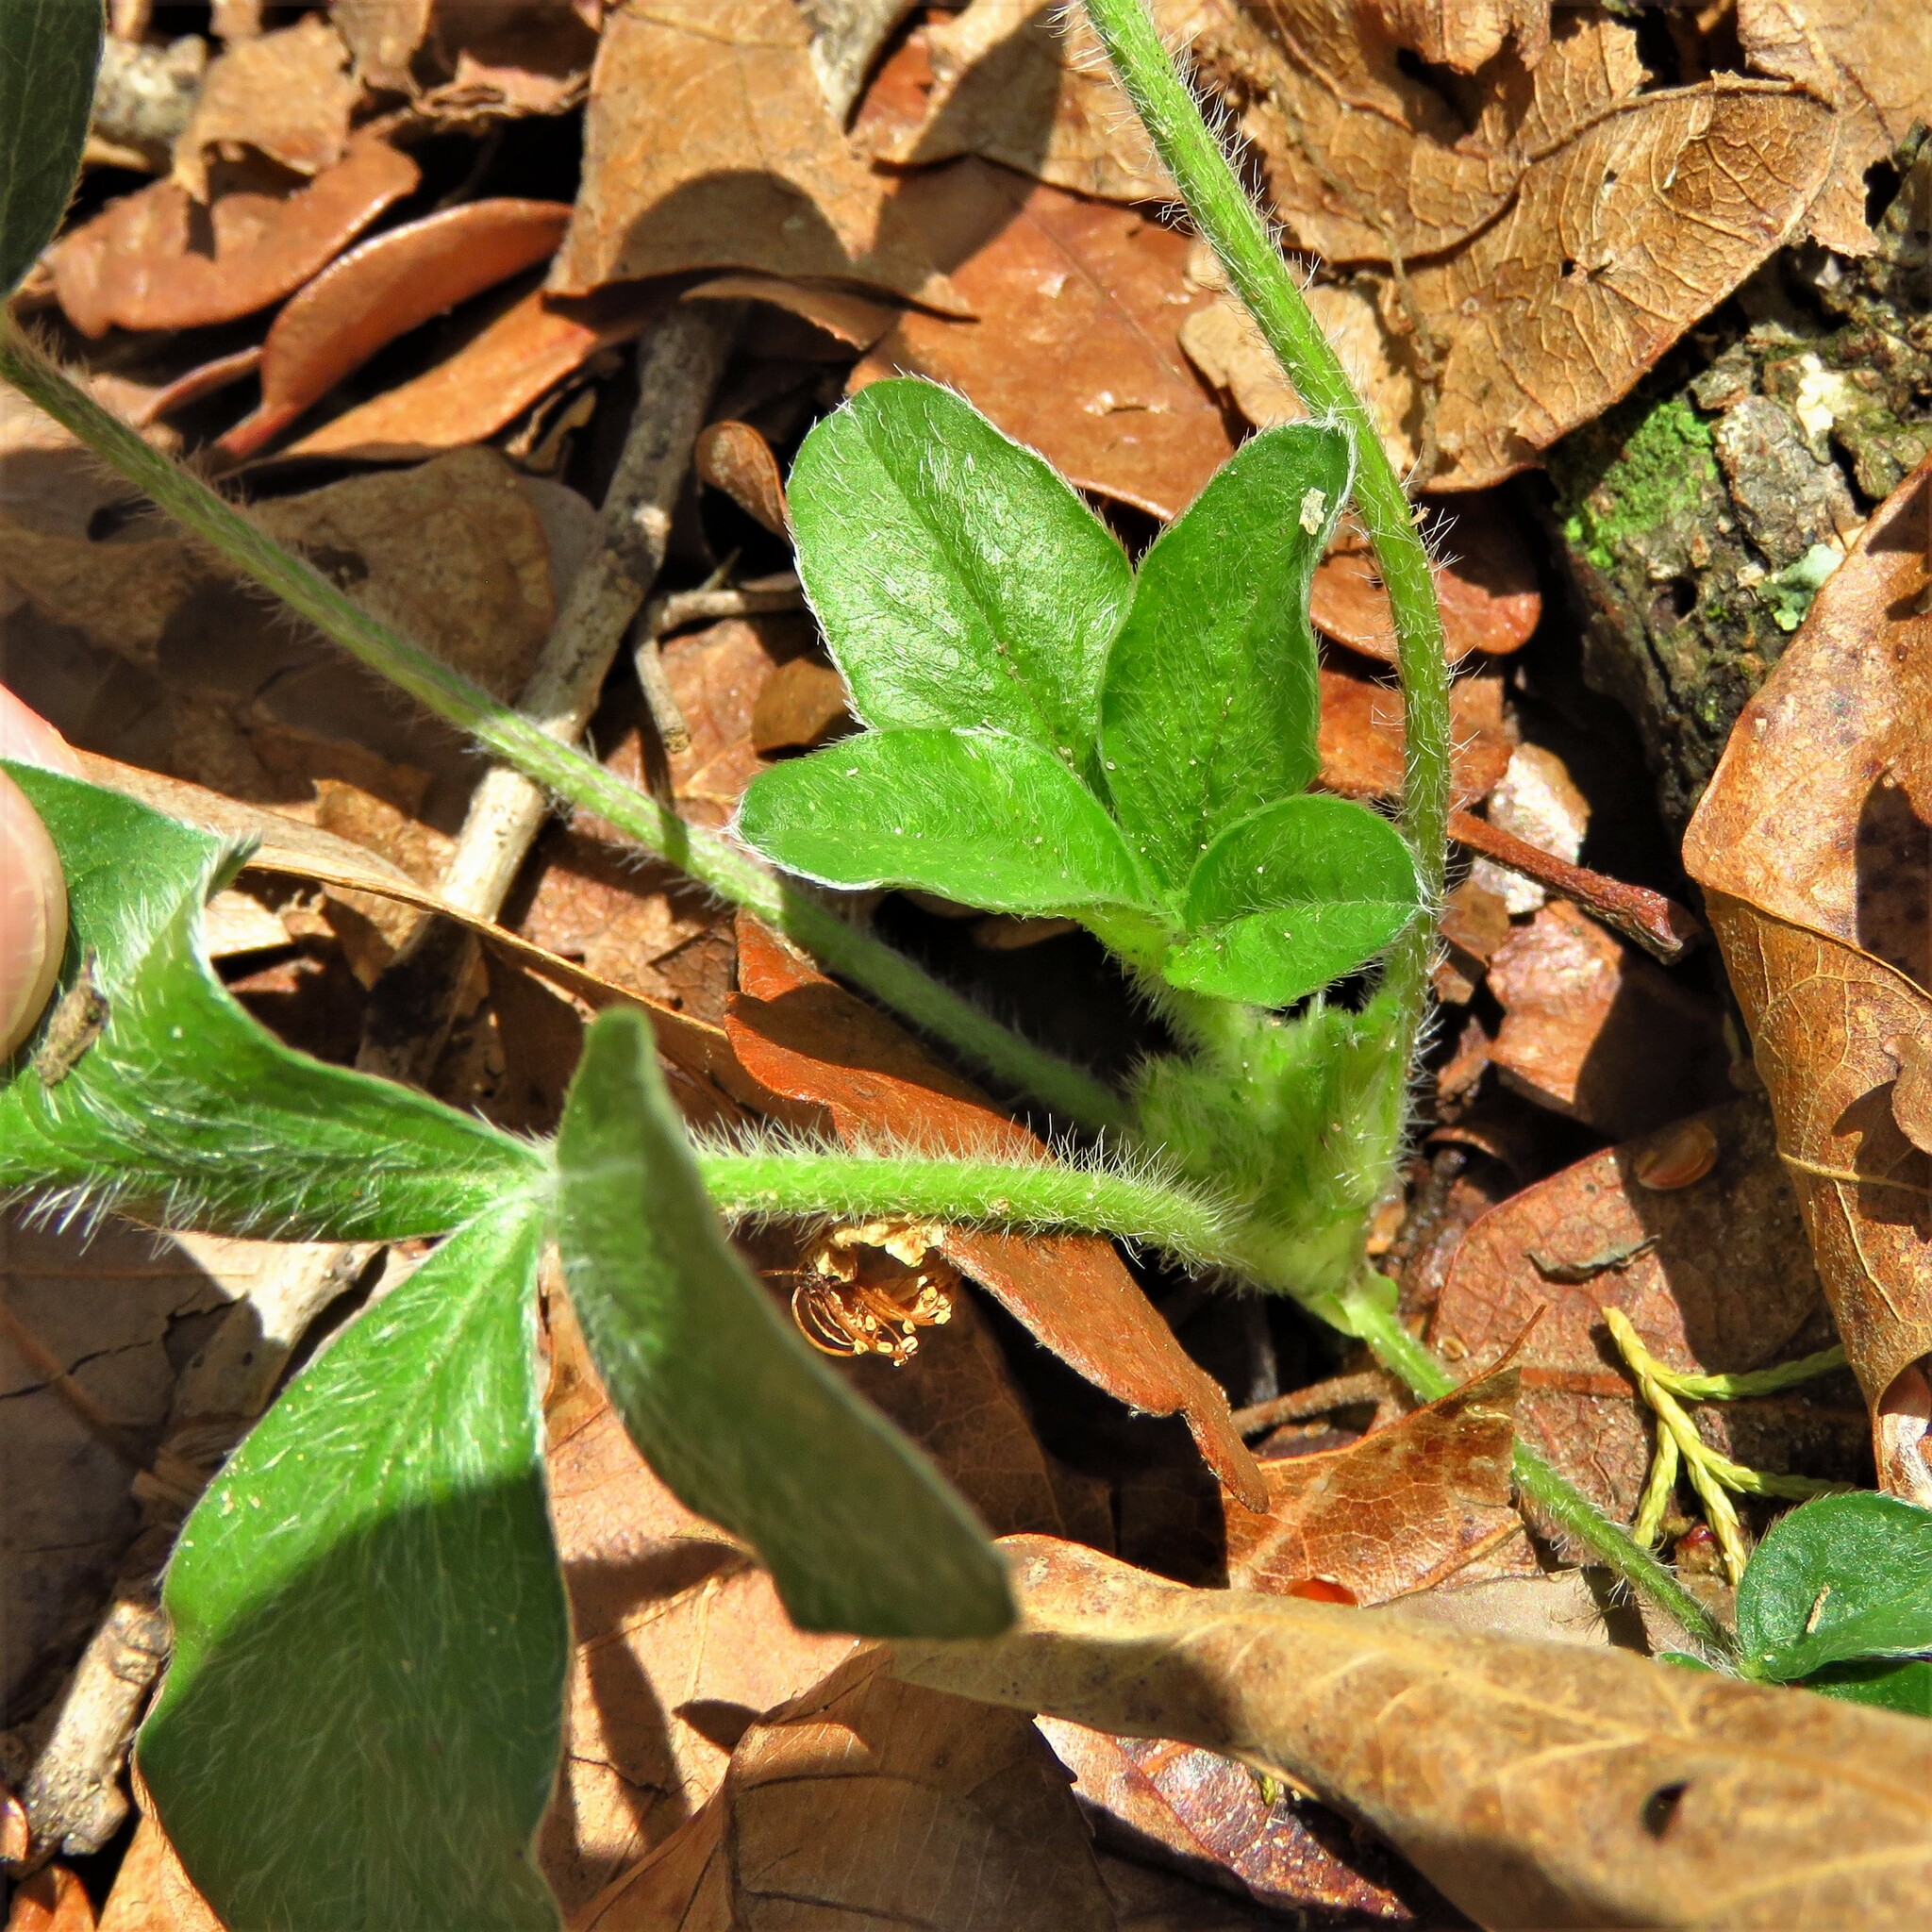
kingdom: Plantae
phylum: Tracheophyta
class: Magnoliopsida
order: Fabales
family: Fabaceae
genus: Pediomelum
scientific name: Pediomelum hypogaeum
